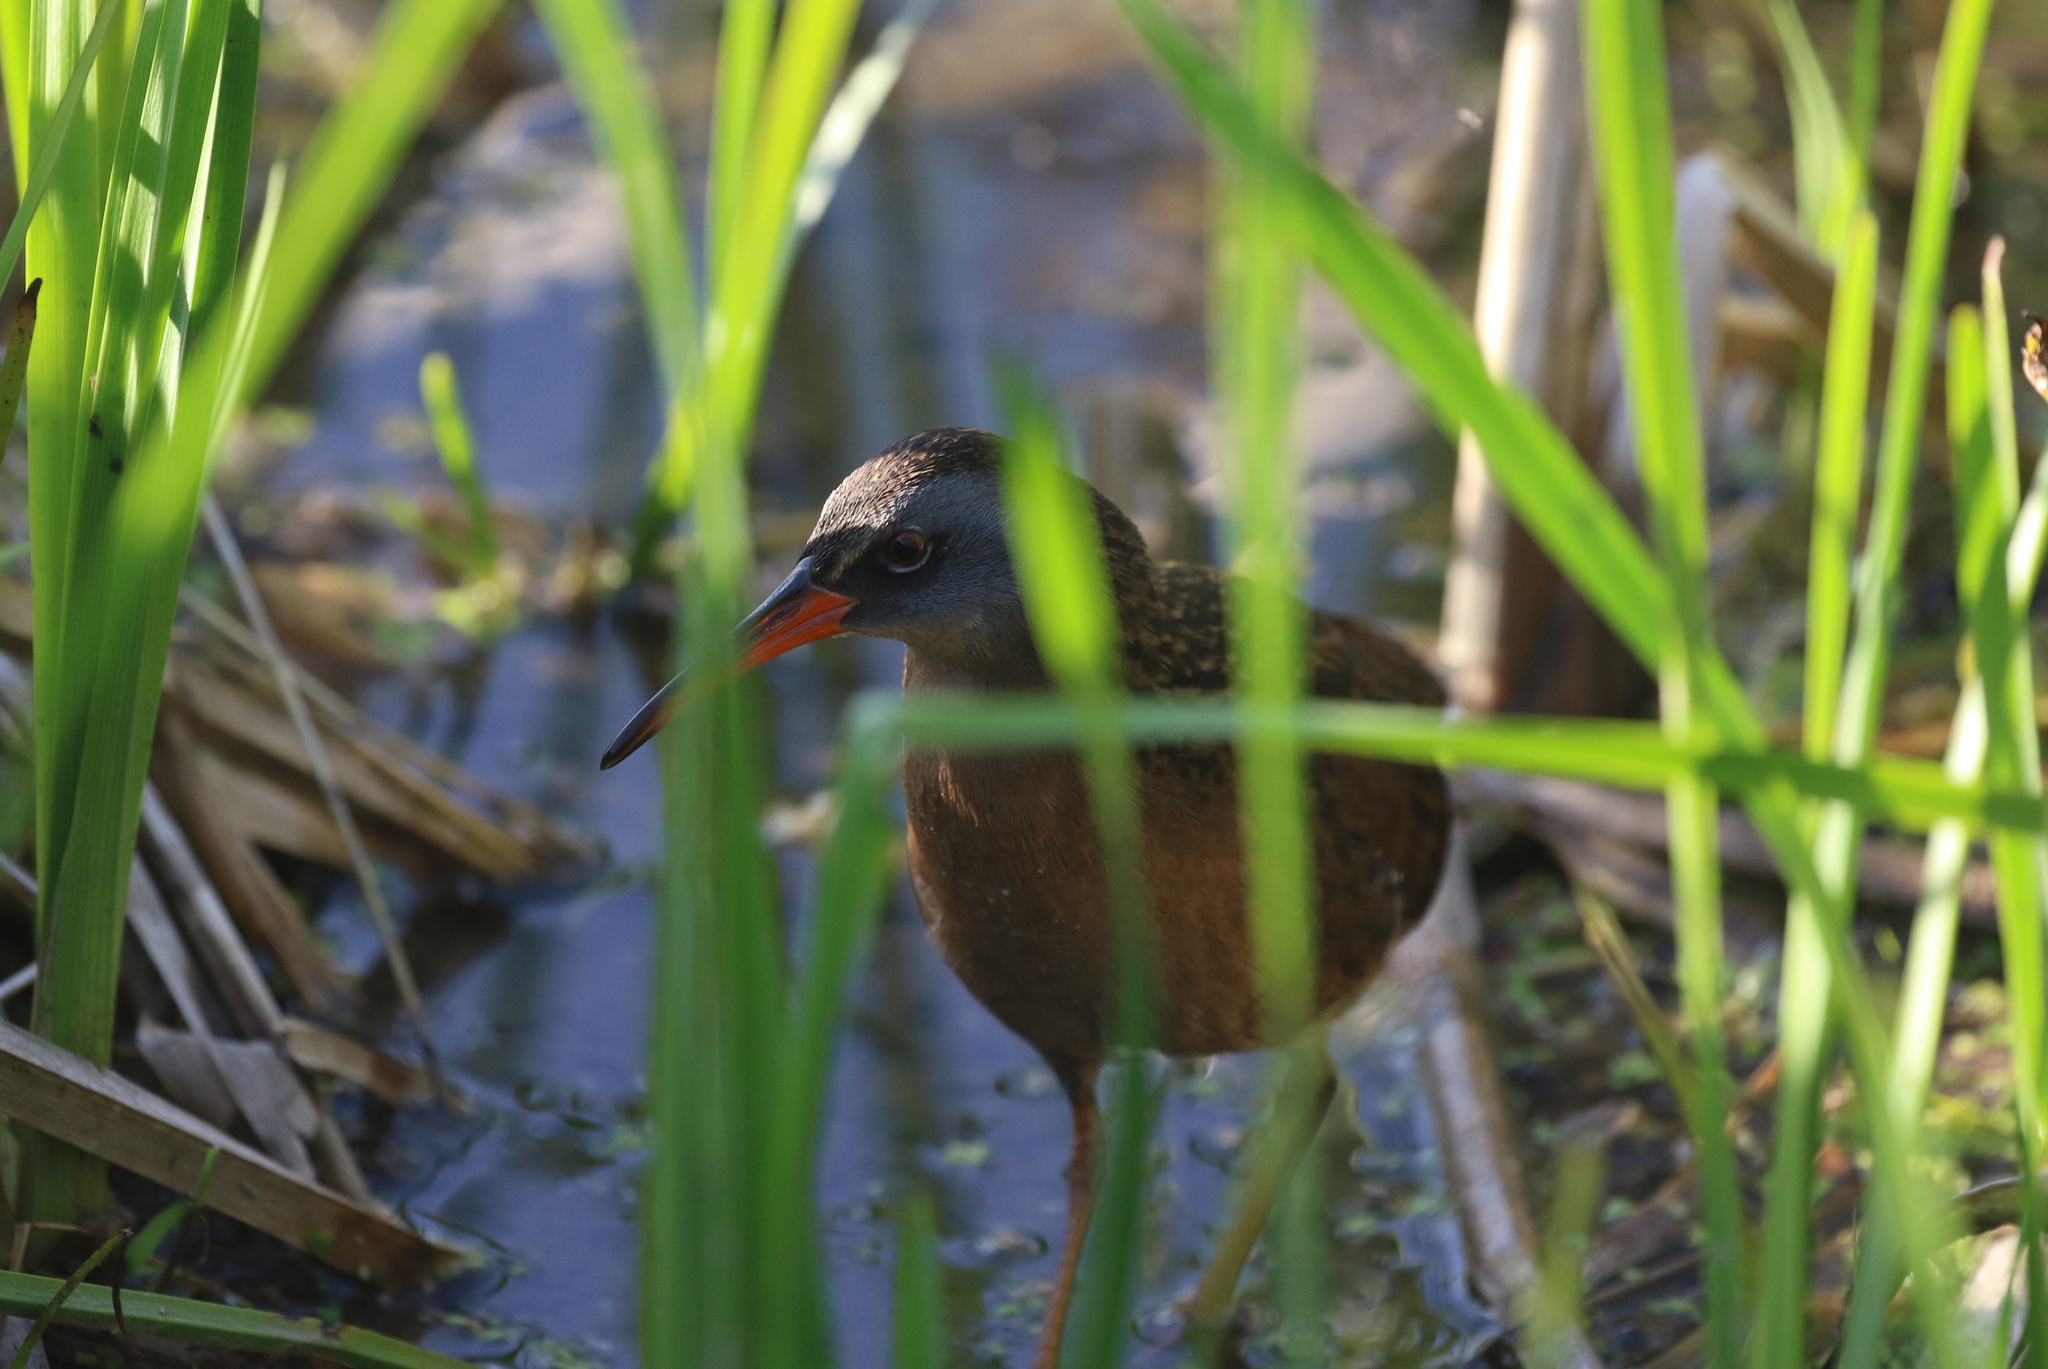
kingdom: Animalia
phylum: Chordata
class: Aves
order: Gruiformes
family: Rallidae
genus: Rallus
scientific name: Rallus limicola
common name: Virginia rail
